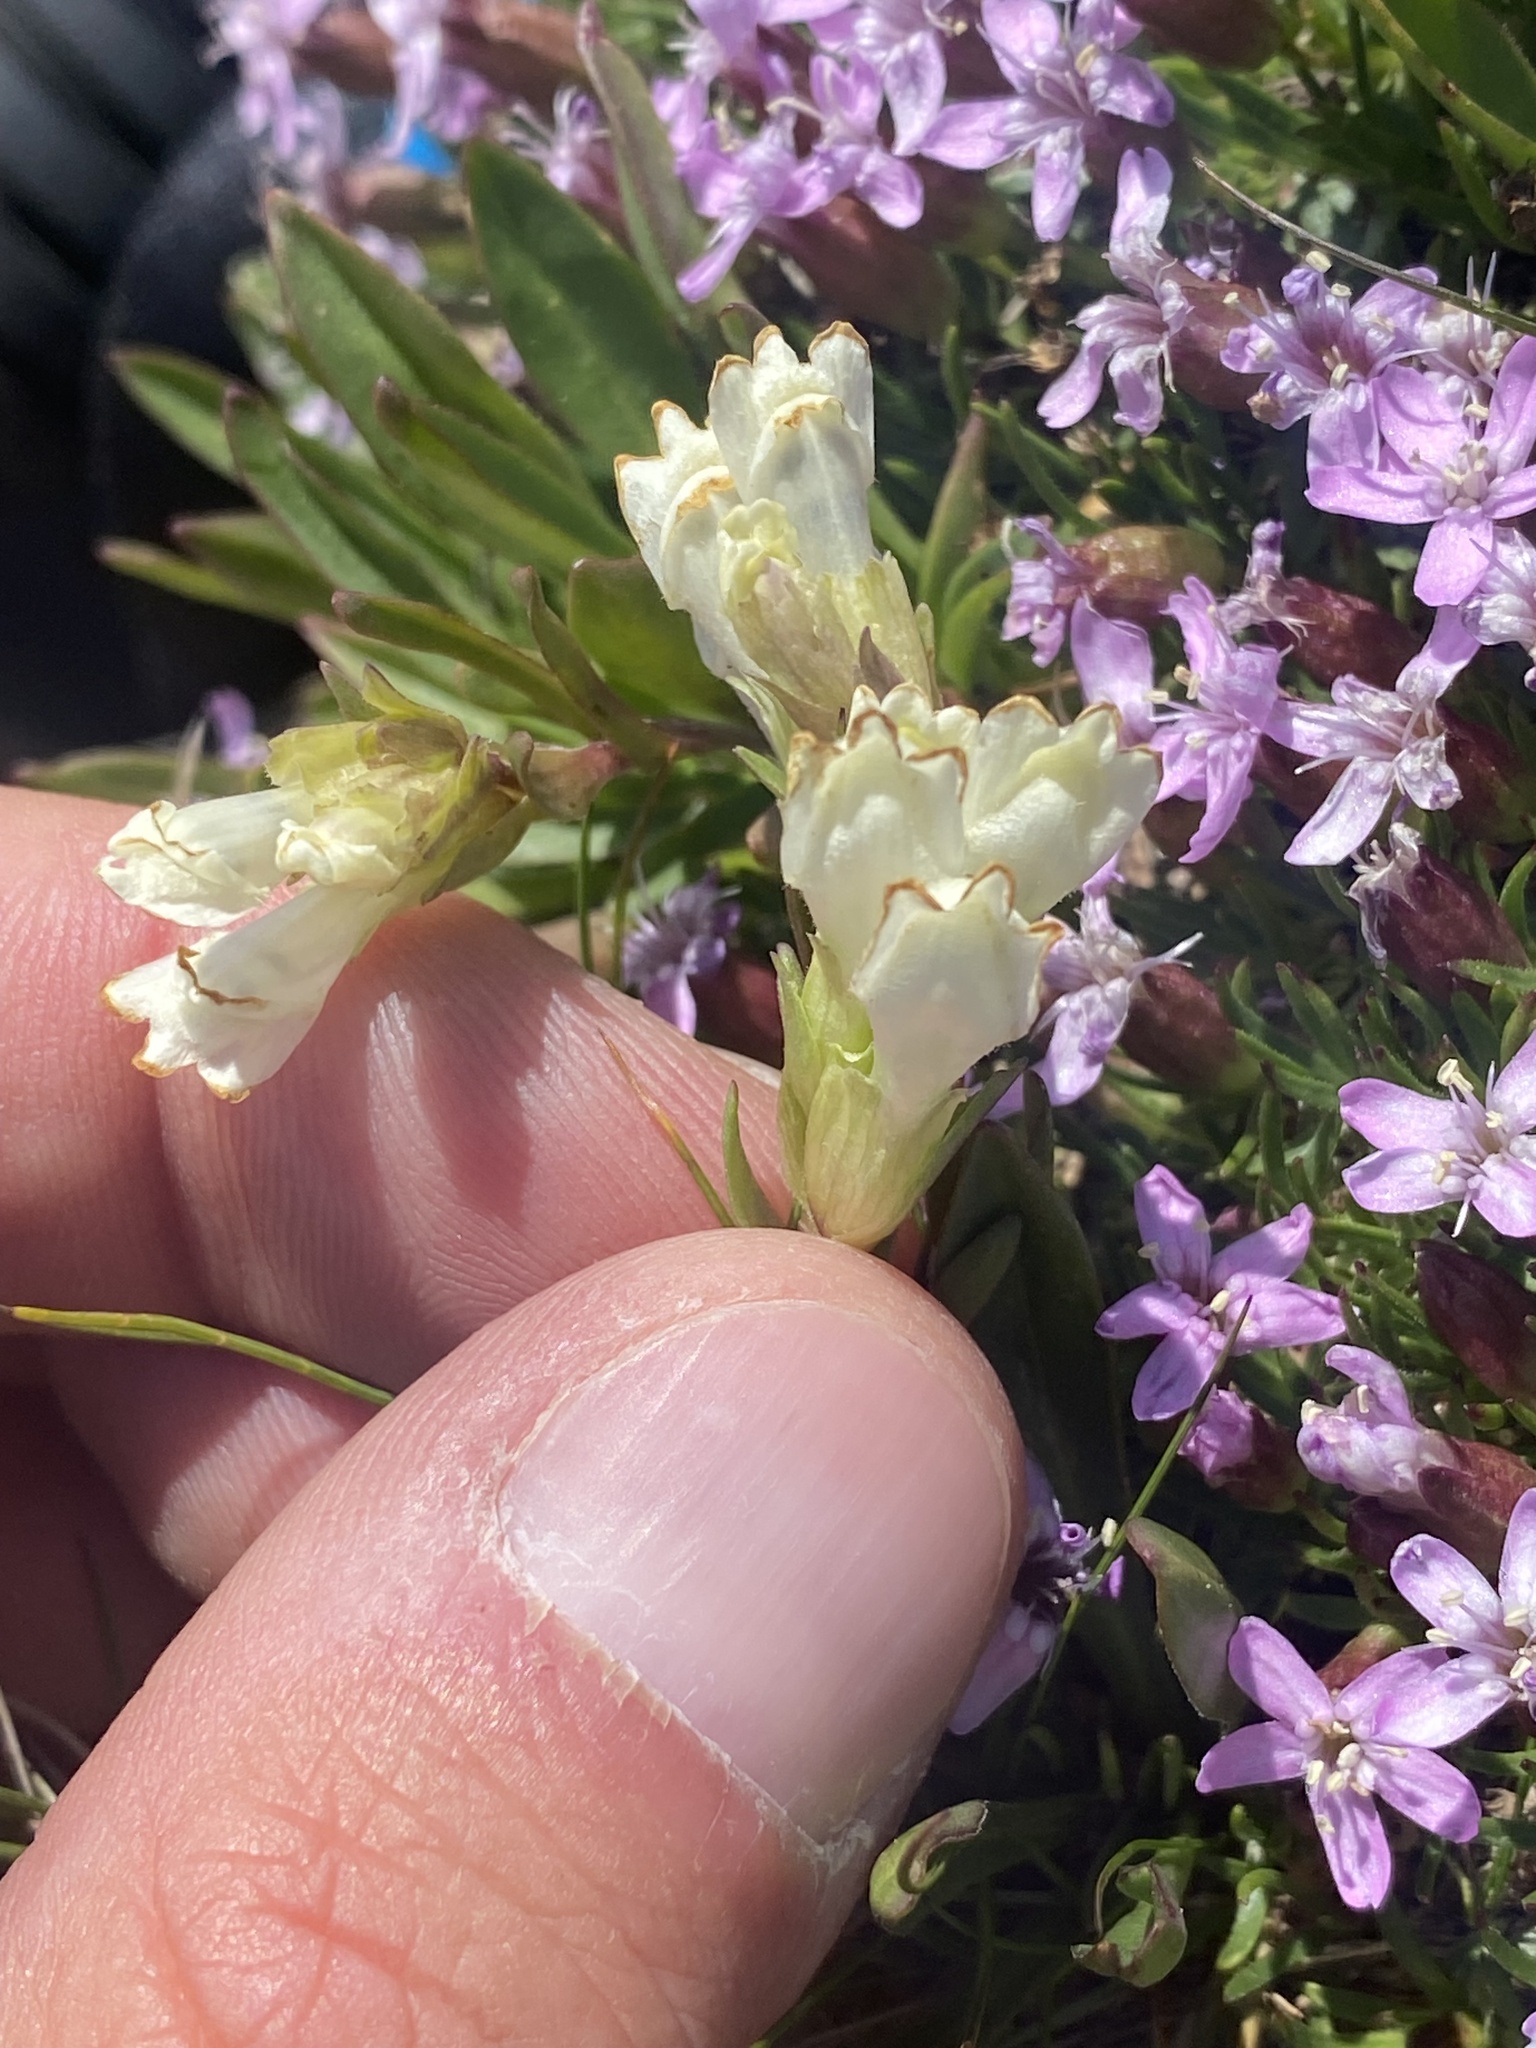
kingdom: Plantae
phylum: Tracheophyta
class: Magnoliopsida
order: Lamiales
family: Plantaginaceae
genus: Chionophila
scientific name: Chionophila jamesii
